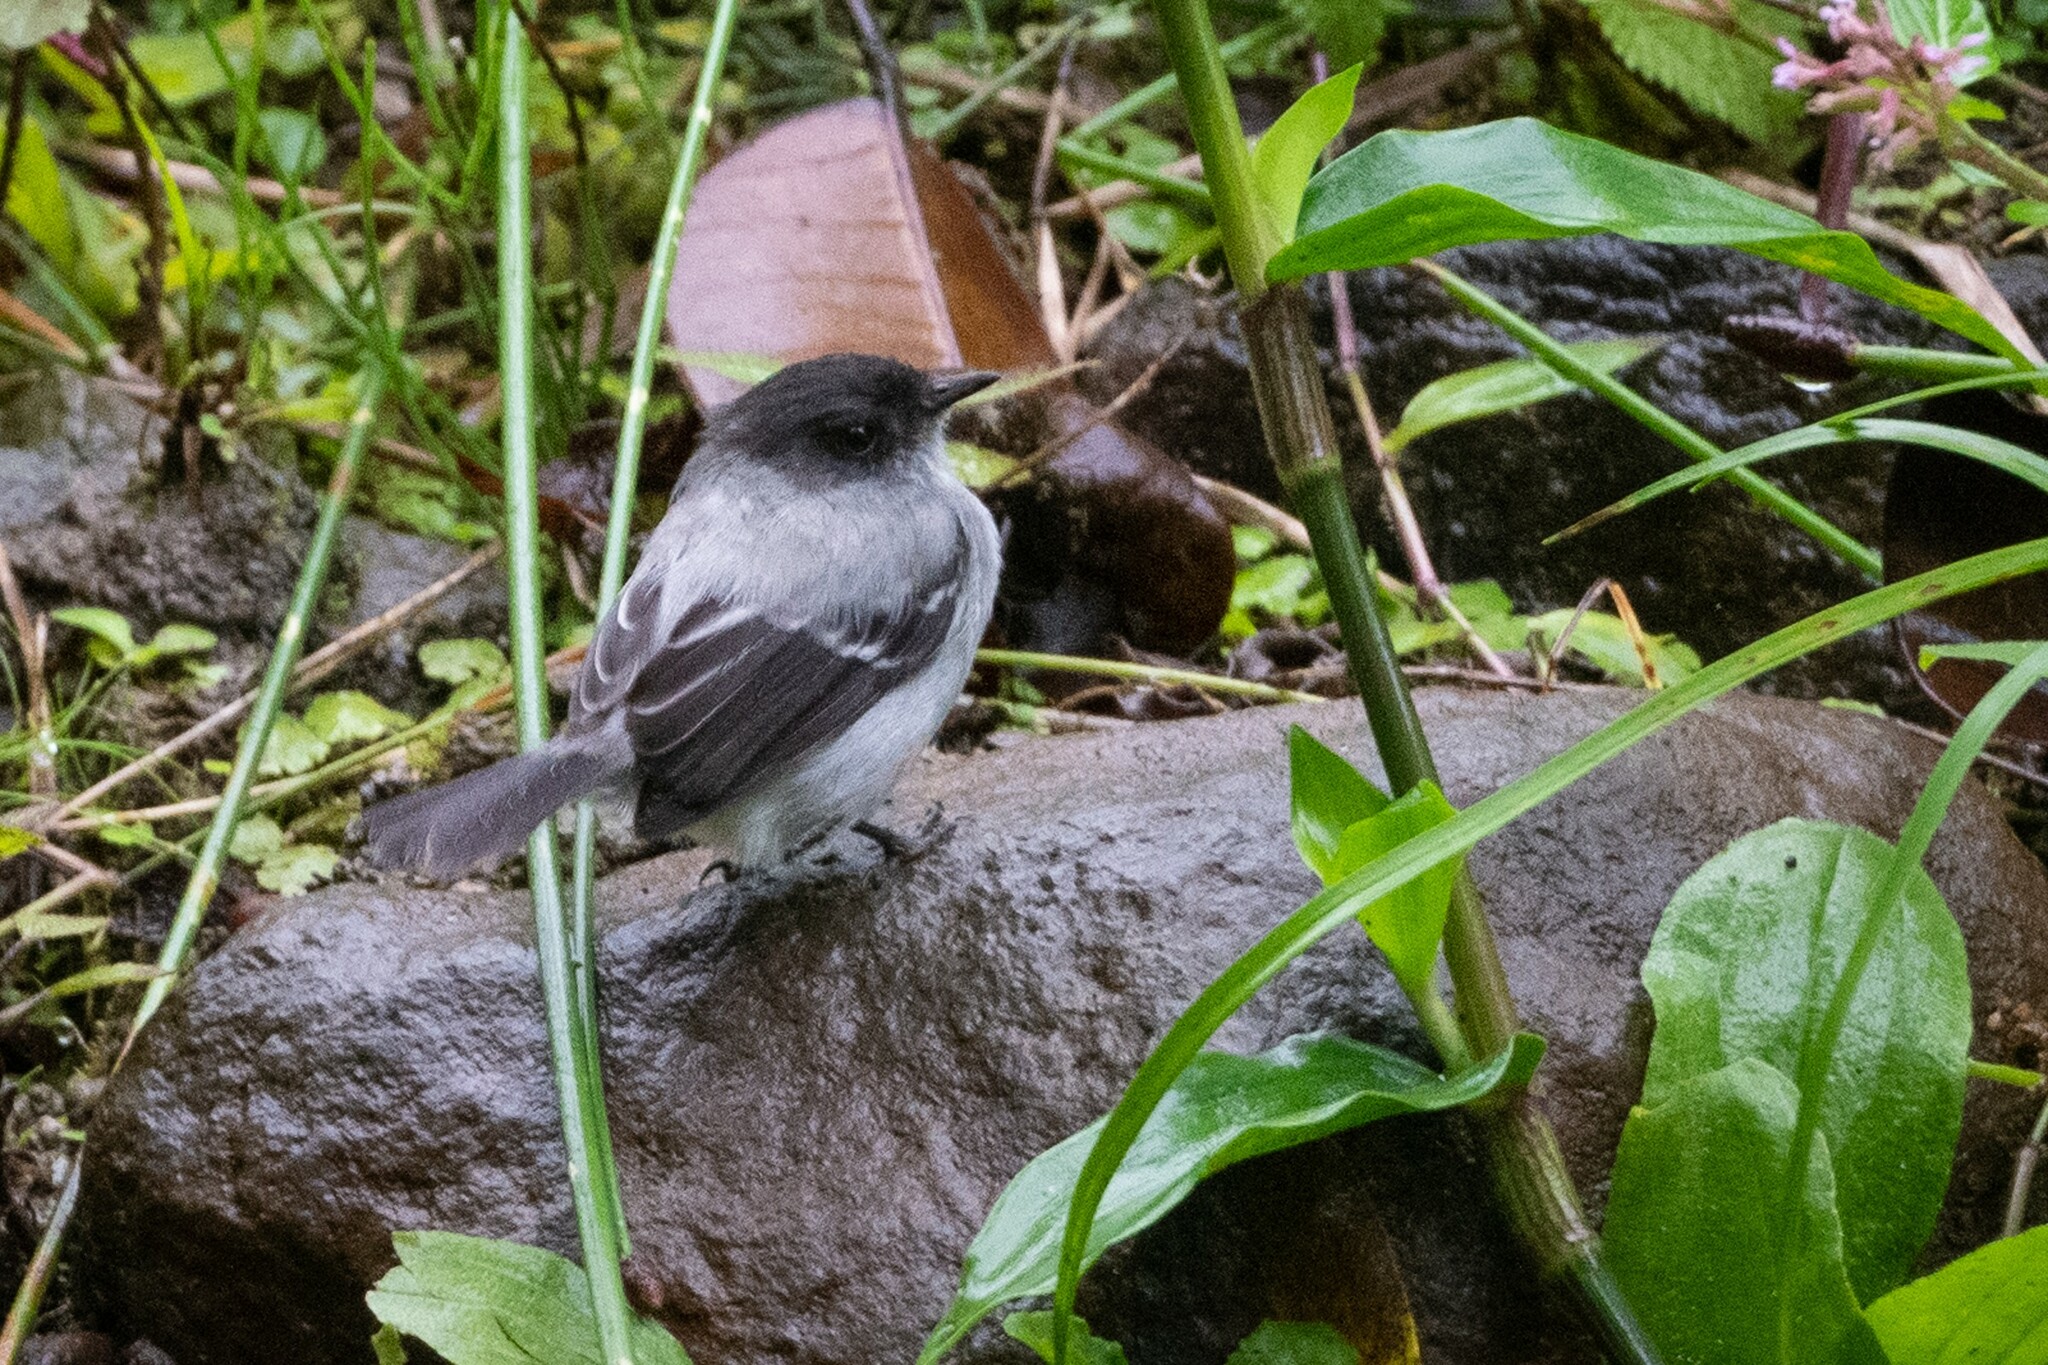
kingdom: Animalia
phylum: Chordata
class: Aves
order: Passeriformes
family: Tyrannidae
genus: Serpophaga
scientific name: Serpophaga cinerea
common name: Torrent tyrannulet
